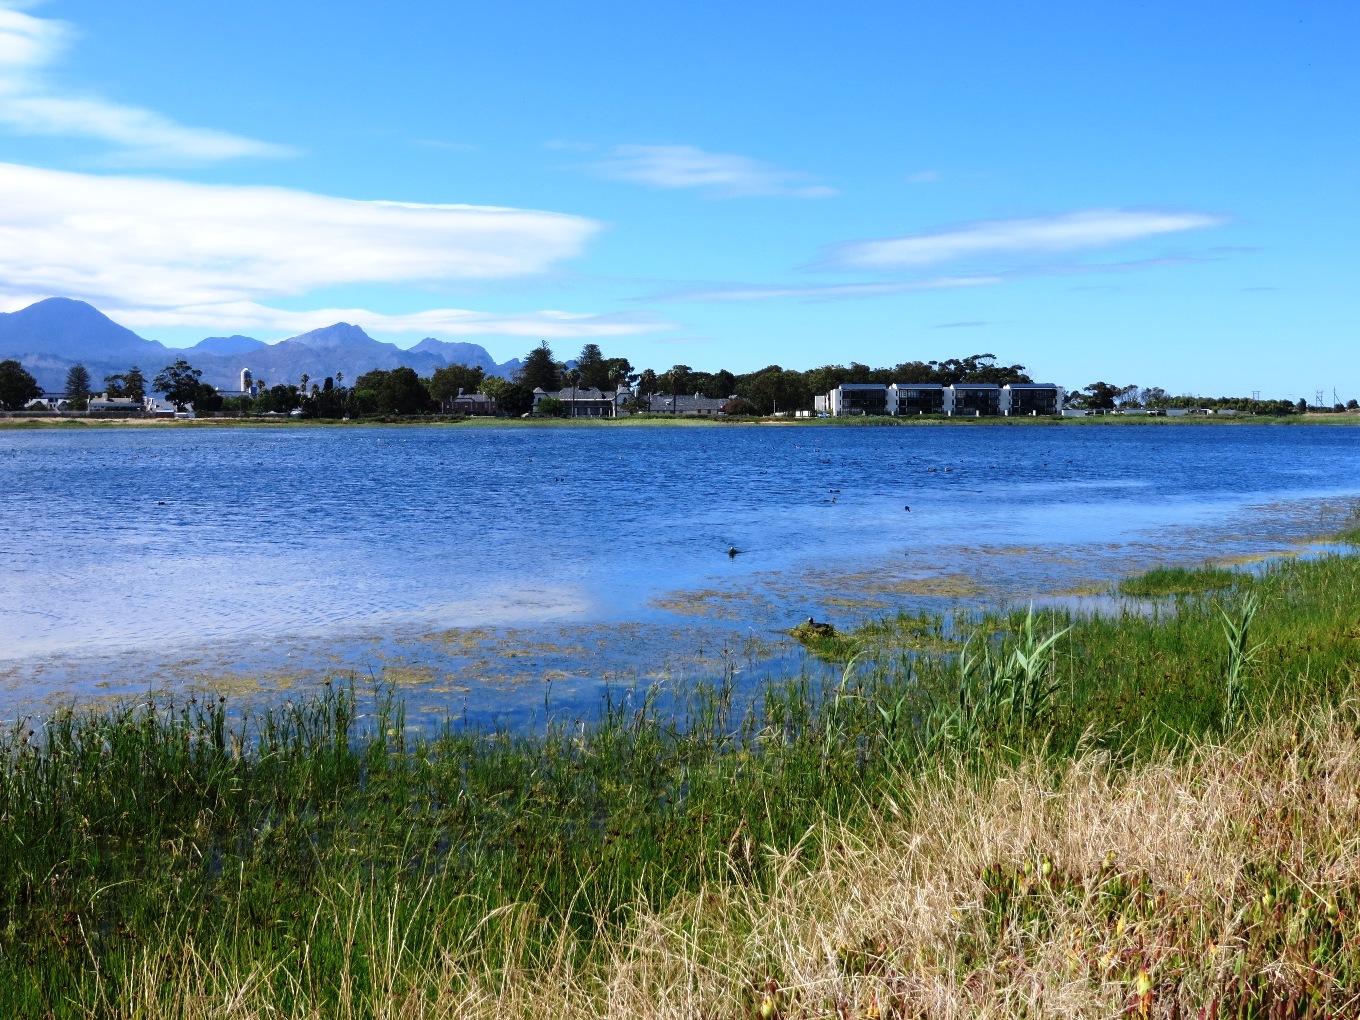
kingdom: Animalia
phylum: Chordata
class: Aves
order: Gruiformes
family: Rallidae
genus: Fulica
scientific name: Fulica cristata
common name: Red-knobbed coot
